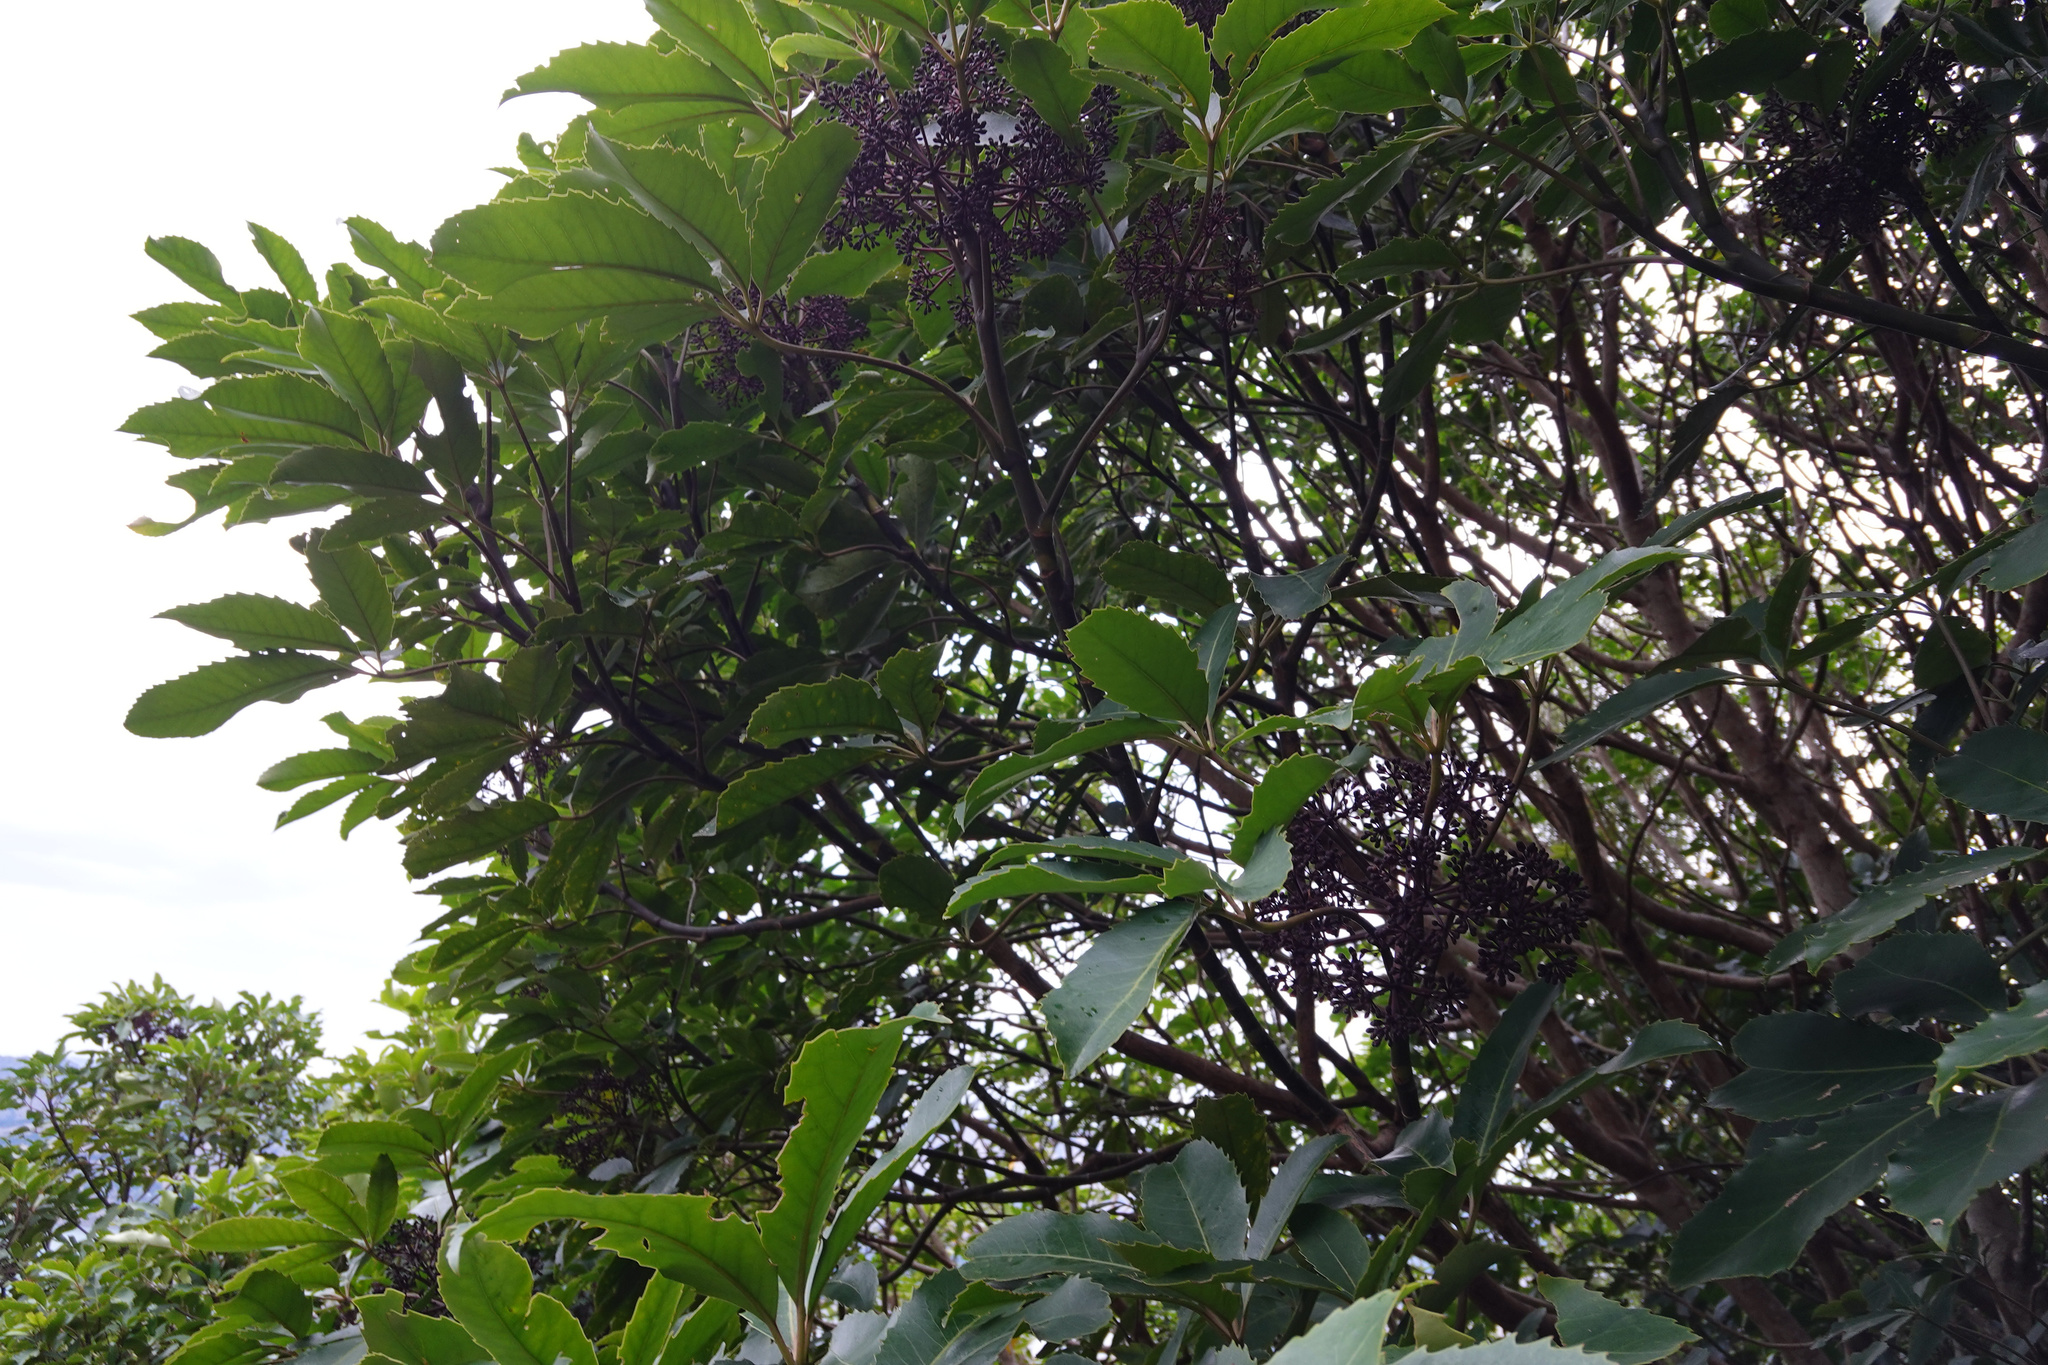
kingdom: Plantae
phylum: Tracheophyta
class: Magnoliopsida
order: Apiales
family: Araliaceae
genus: Neopanax
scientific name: Neopanax arboreus
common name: Five-fingers
